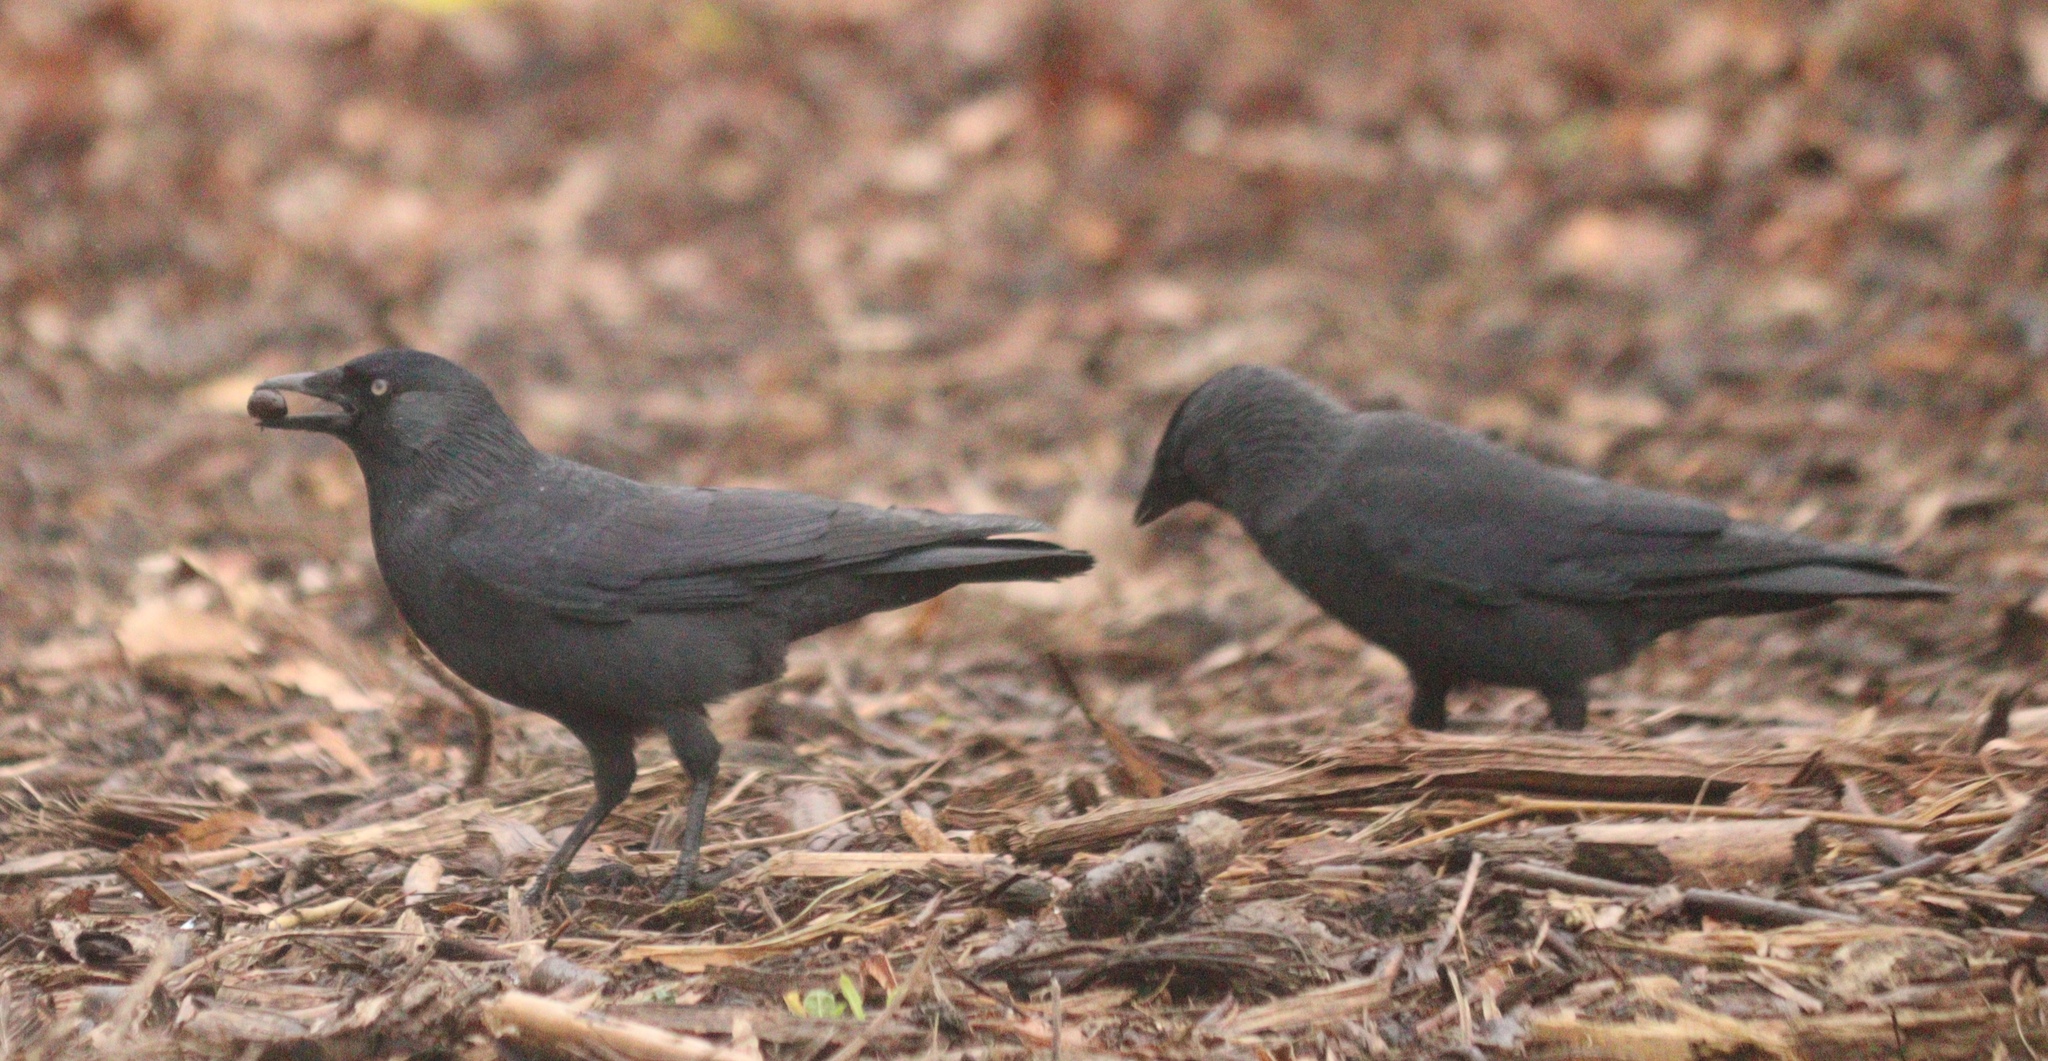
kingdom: Animalia
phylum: Chordata
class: Aves
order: Passeriformes
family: Corvidae
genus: Coloeus
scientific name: Coloeus monedula
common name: Western jackdaw
